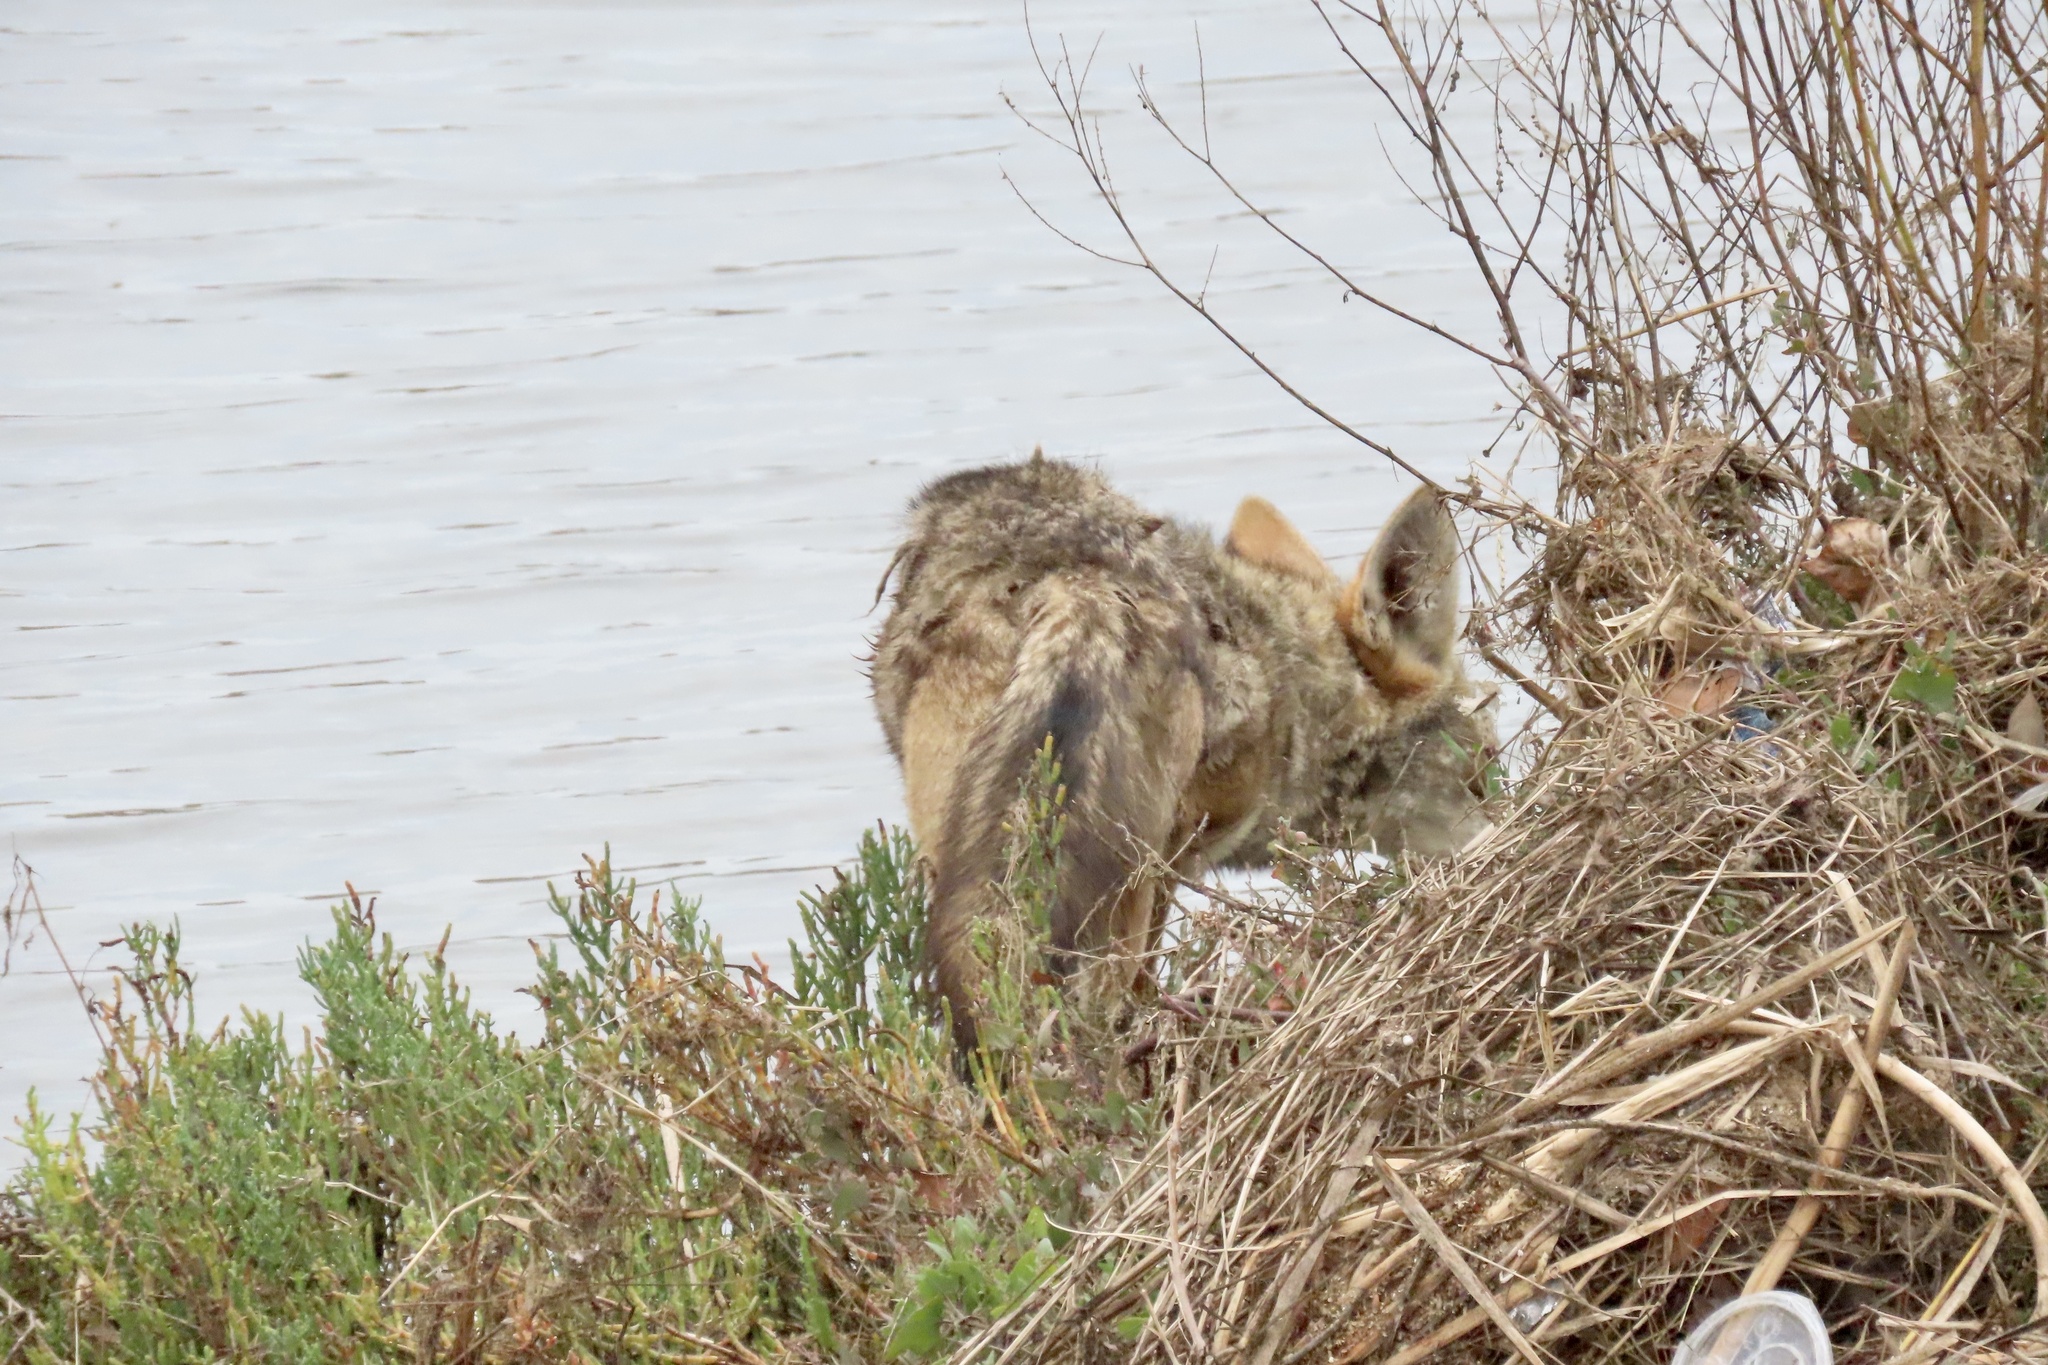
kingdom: Animalia
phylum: Chordata
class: Mammalia
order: Carnivora
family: Canidae
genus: Canis
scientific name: Canis latrans
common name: Coyote
